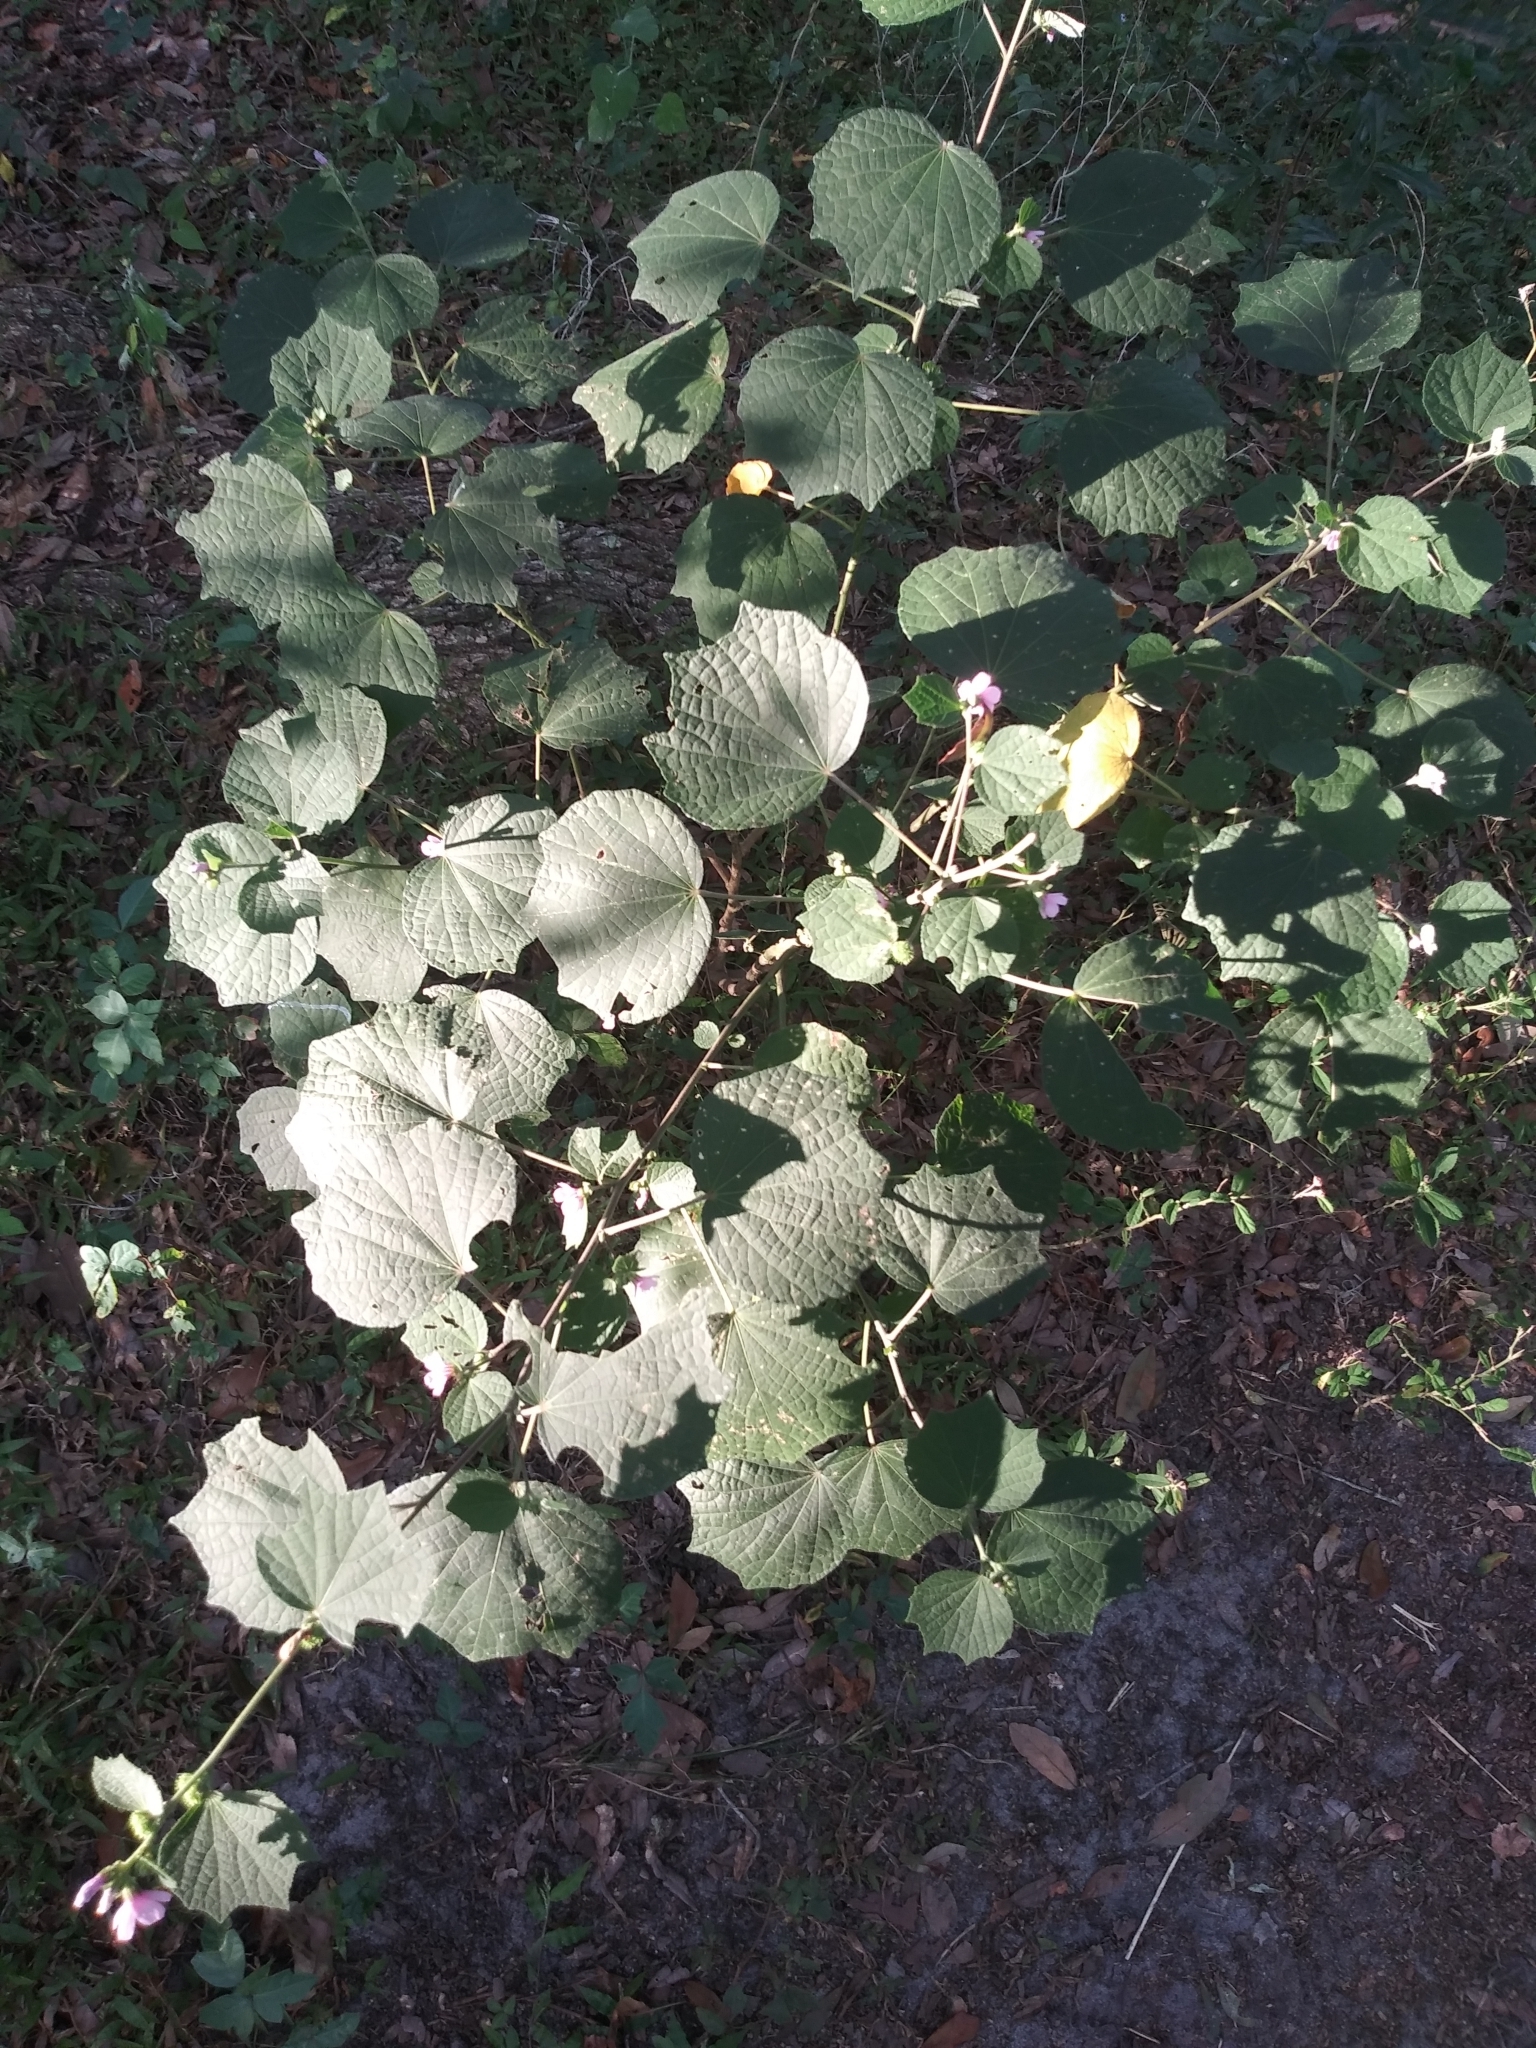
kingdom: Plantae
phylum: Tracheophyta
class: Magnoliopsida
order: Malvales
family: Malvaceae
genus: Urena
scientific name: Urena lobata
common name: Caesarweed
